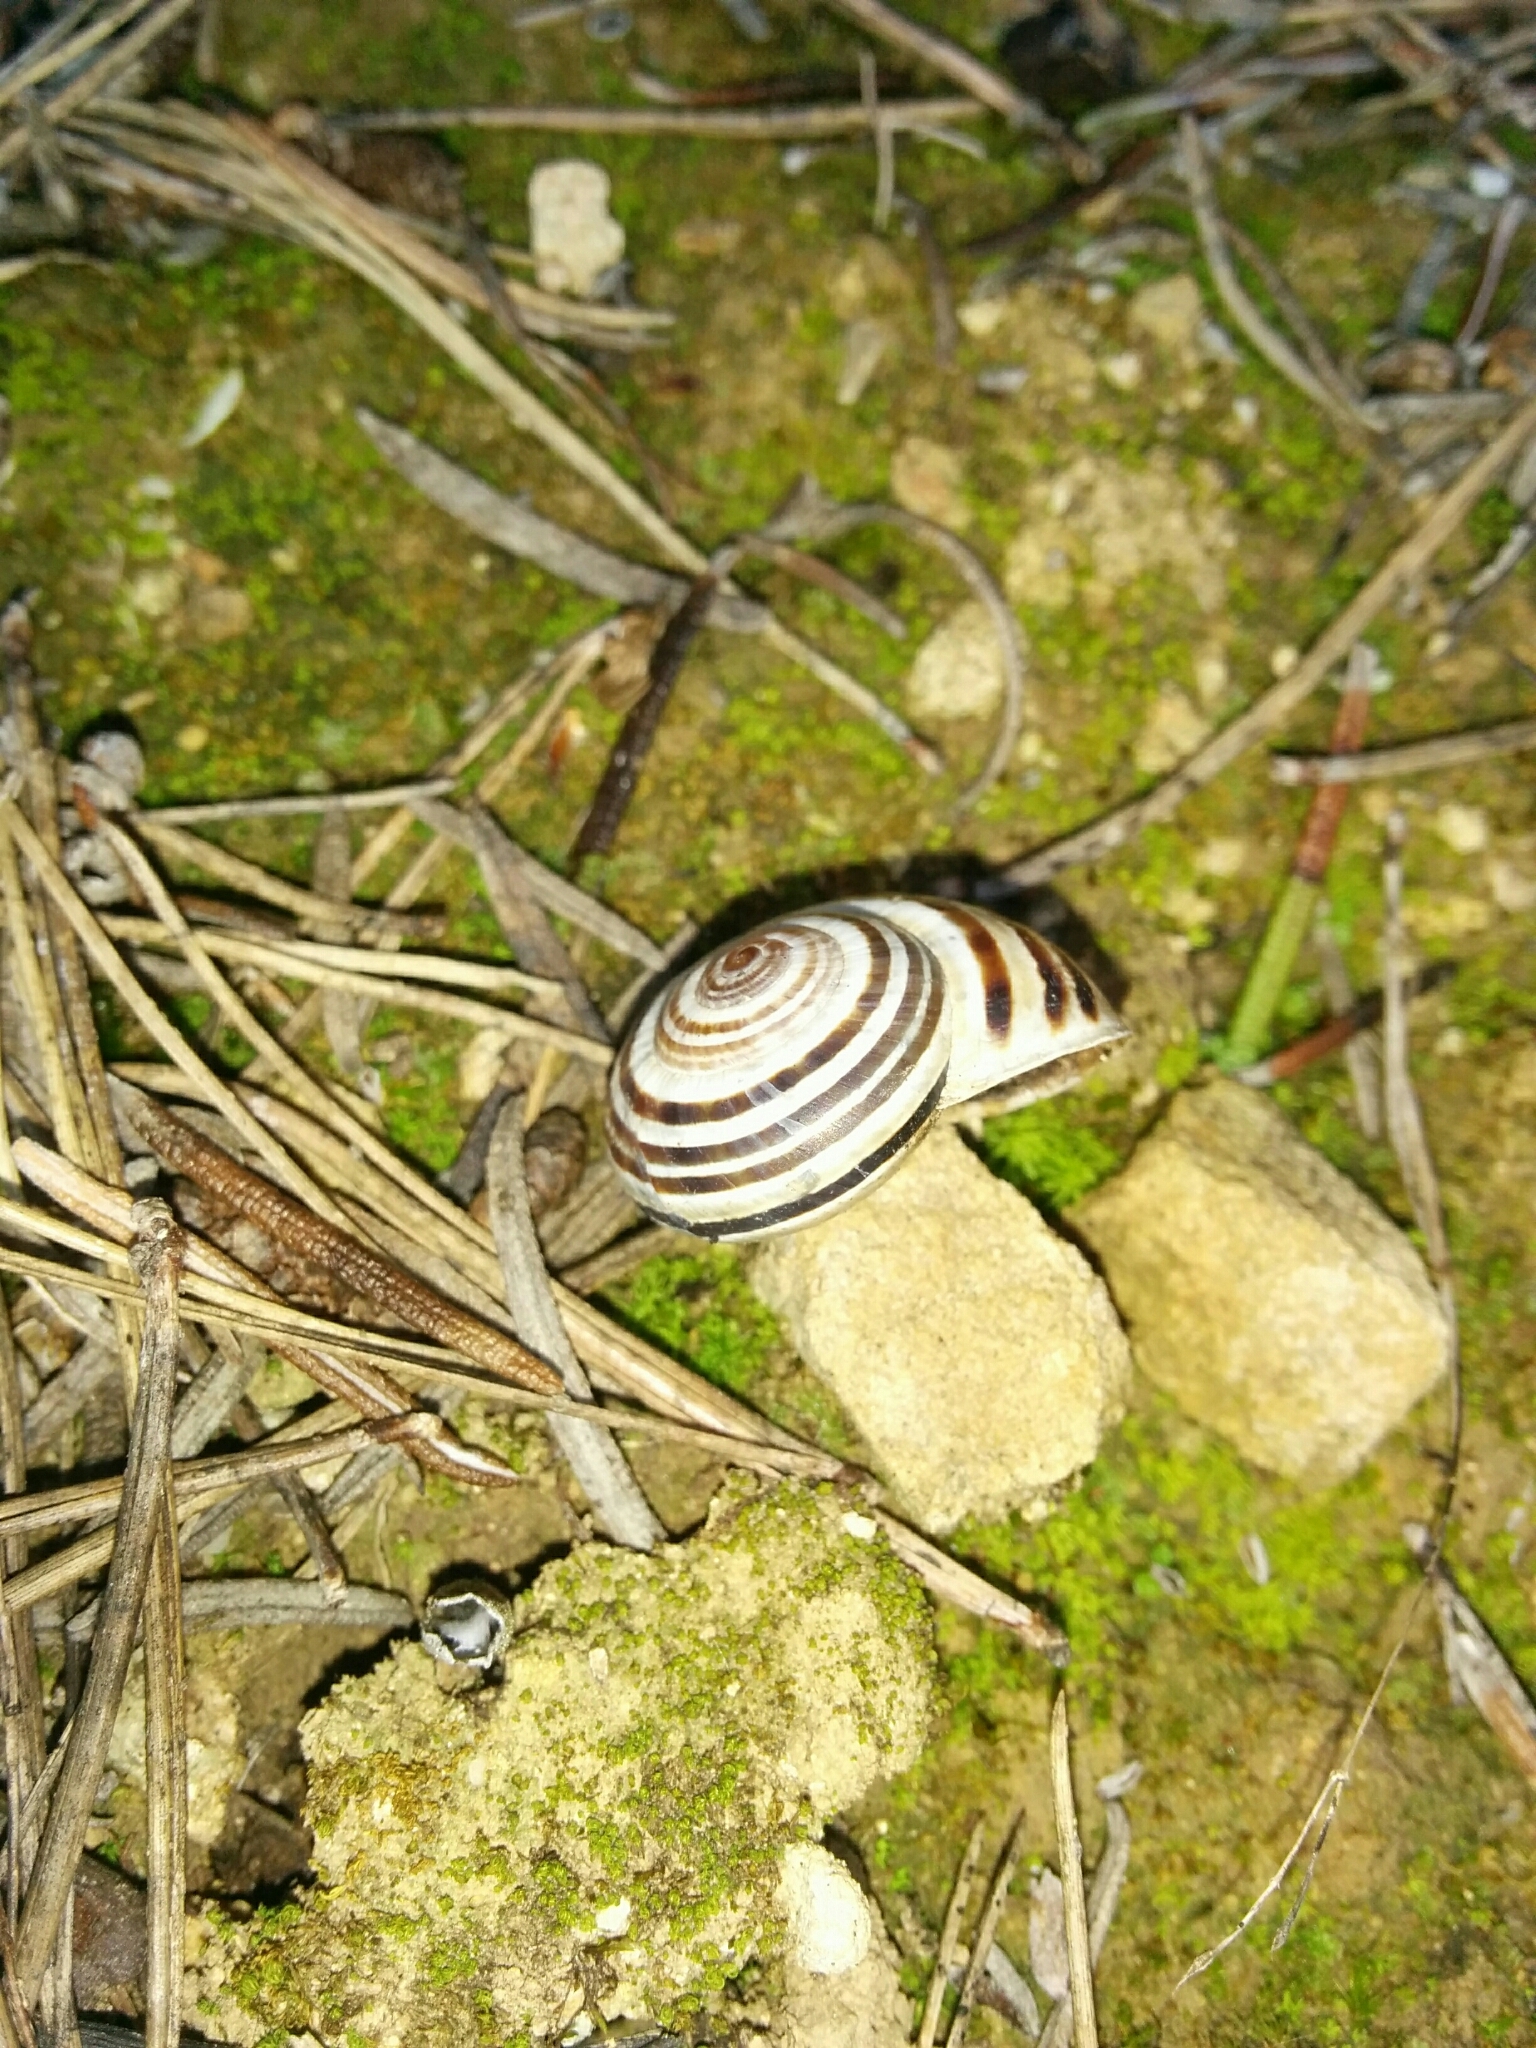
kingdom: Animalia
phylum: Mollusca
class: Gastropoda
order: Stylommatophora
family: Helicidae
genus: Pseudotachea
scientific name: Pseudotachea splendida
